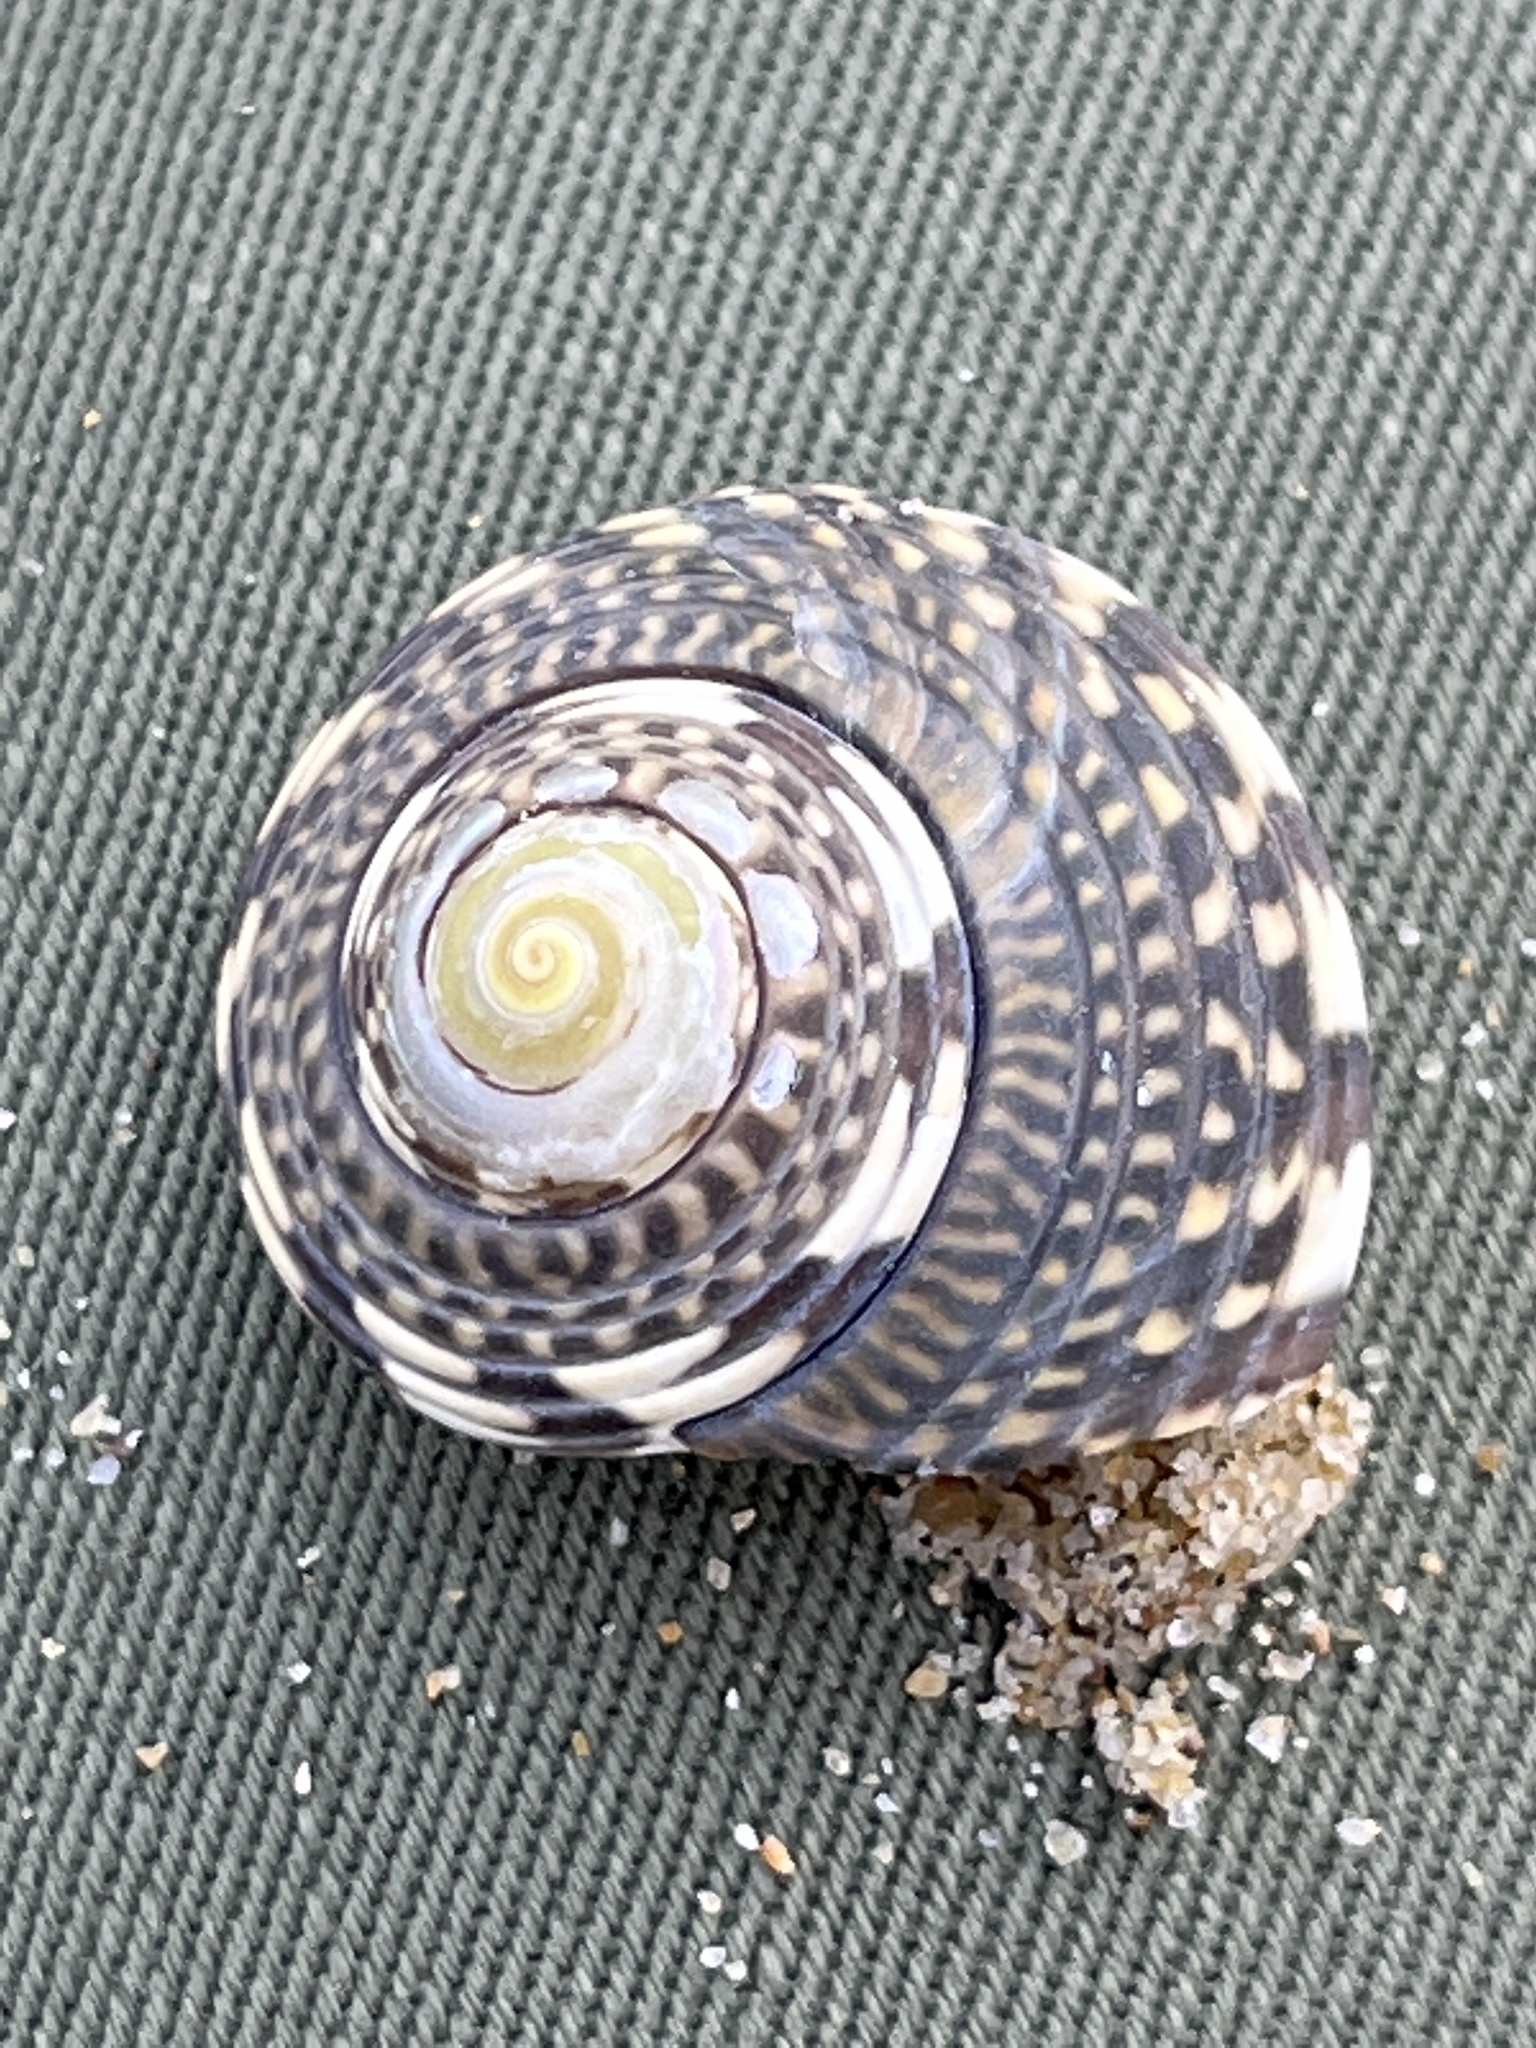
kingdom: Animalia
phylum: Mollusca
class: Gastropoda
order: Trochida
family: Trochidae
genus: Umbonium
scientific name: Umbonium costatum
